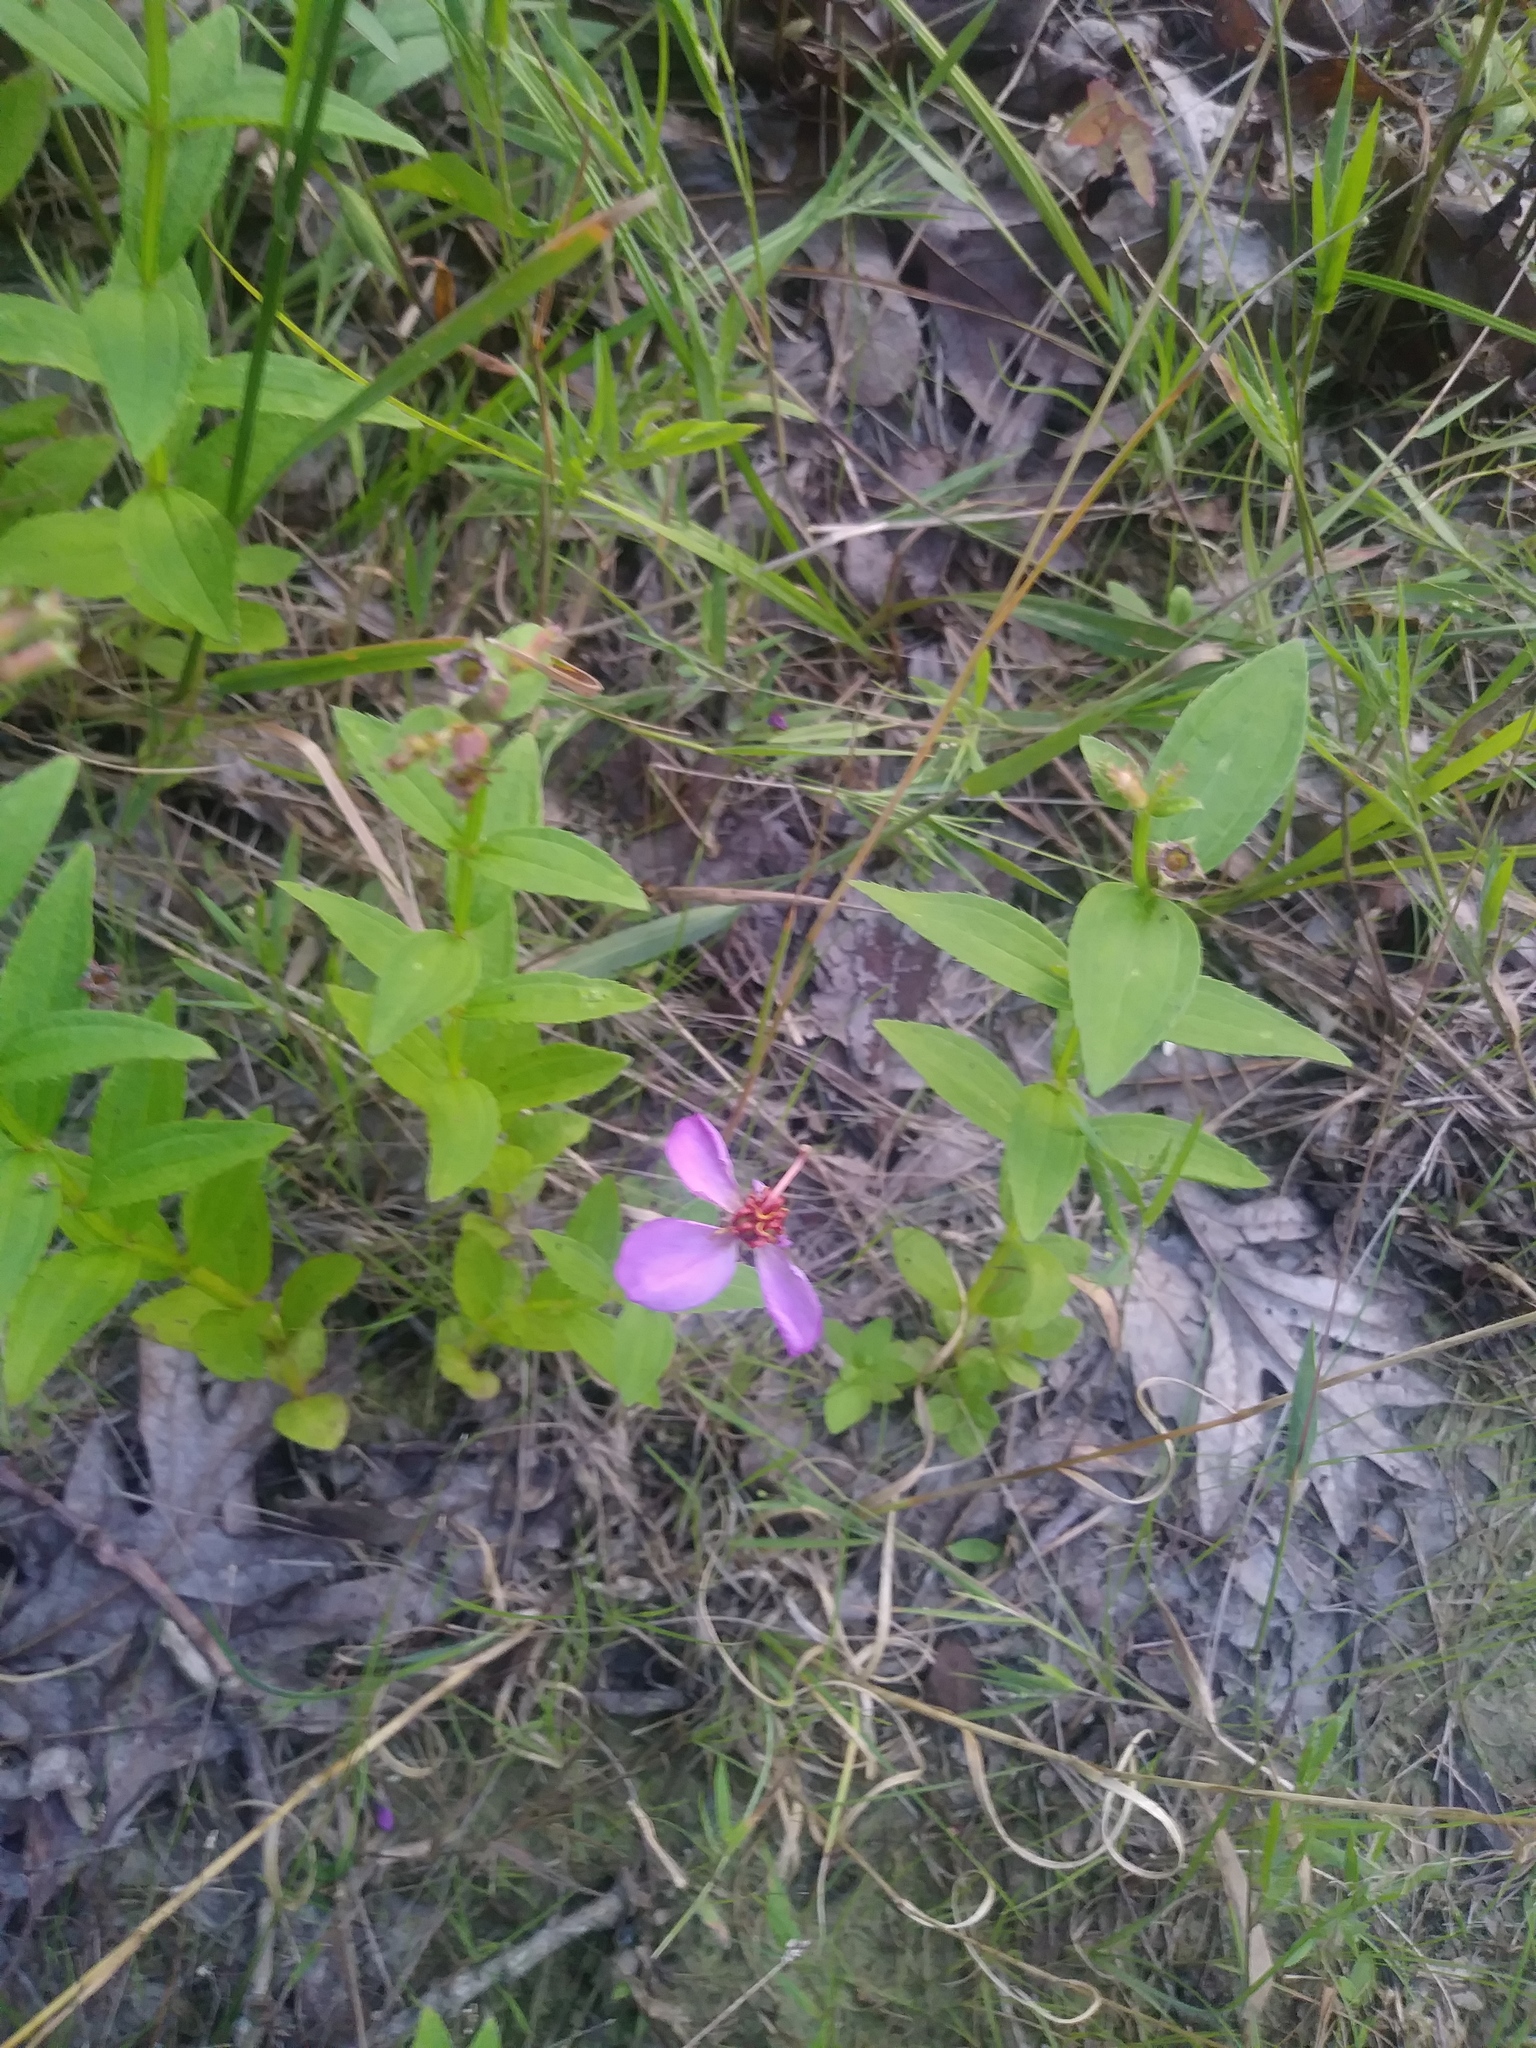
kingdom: Plantae
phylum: Tracheophyta
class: Magnoliopsida
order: Myrtales
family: Melastomataceae
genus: Rhexia
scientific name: Rhexia virginica
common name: Common meadow beauty
